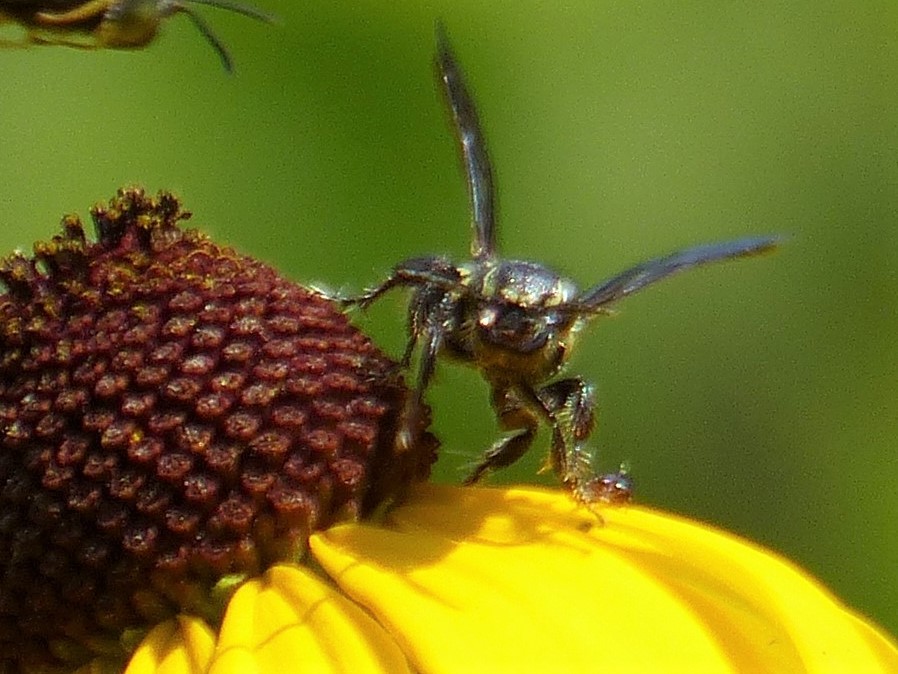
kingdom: Animalia
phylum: Arthropoda
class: Insecta
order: Hymenoptera
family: Tiphiidae
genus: Myzinum
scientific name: Myzinum obscurum
